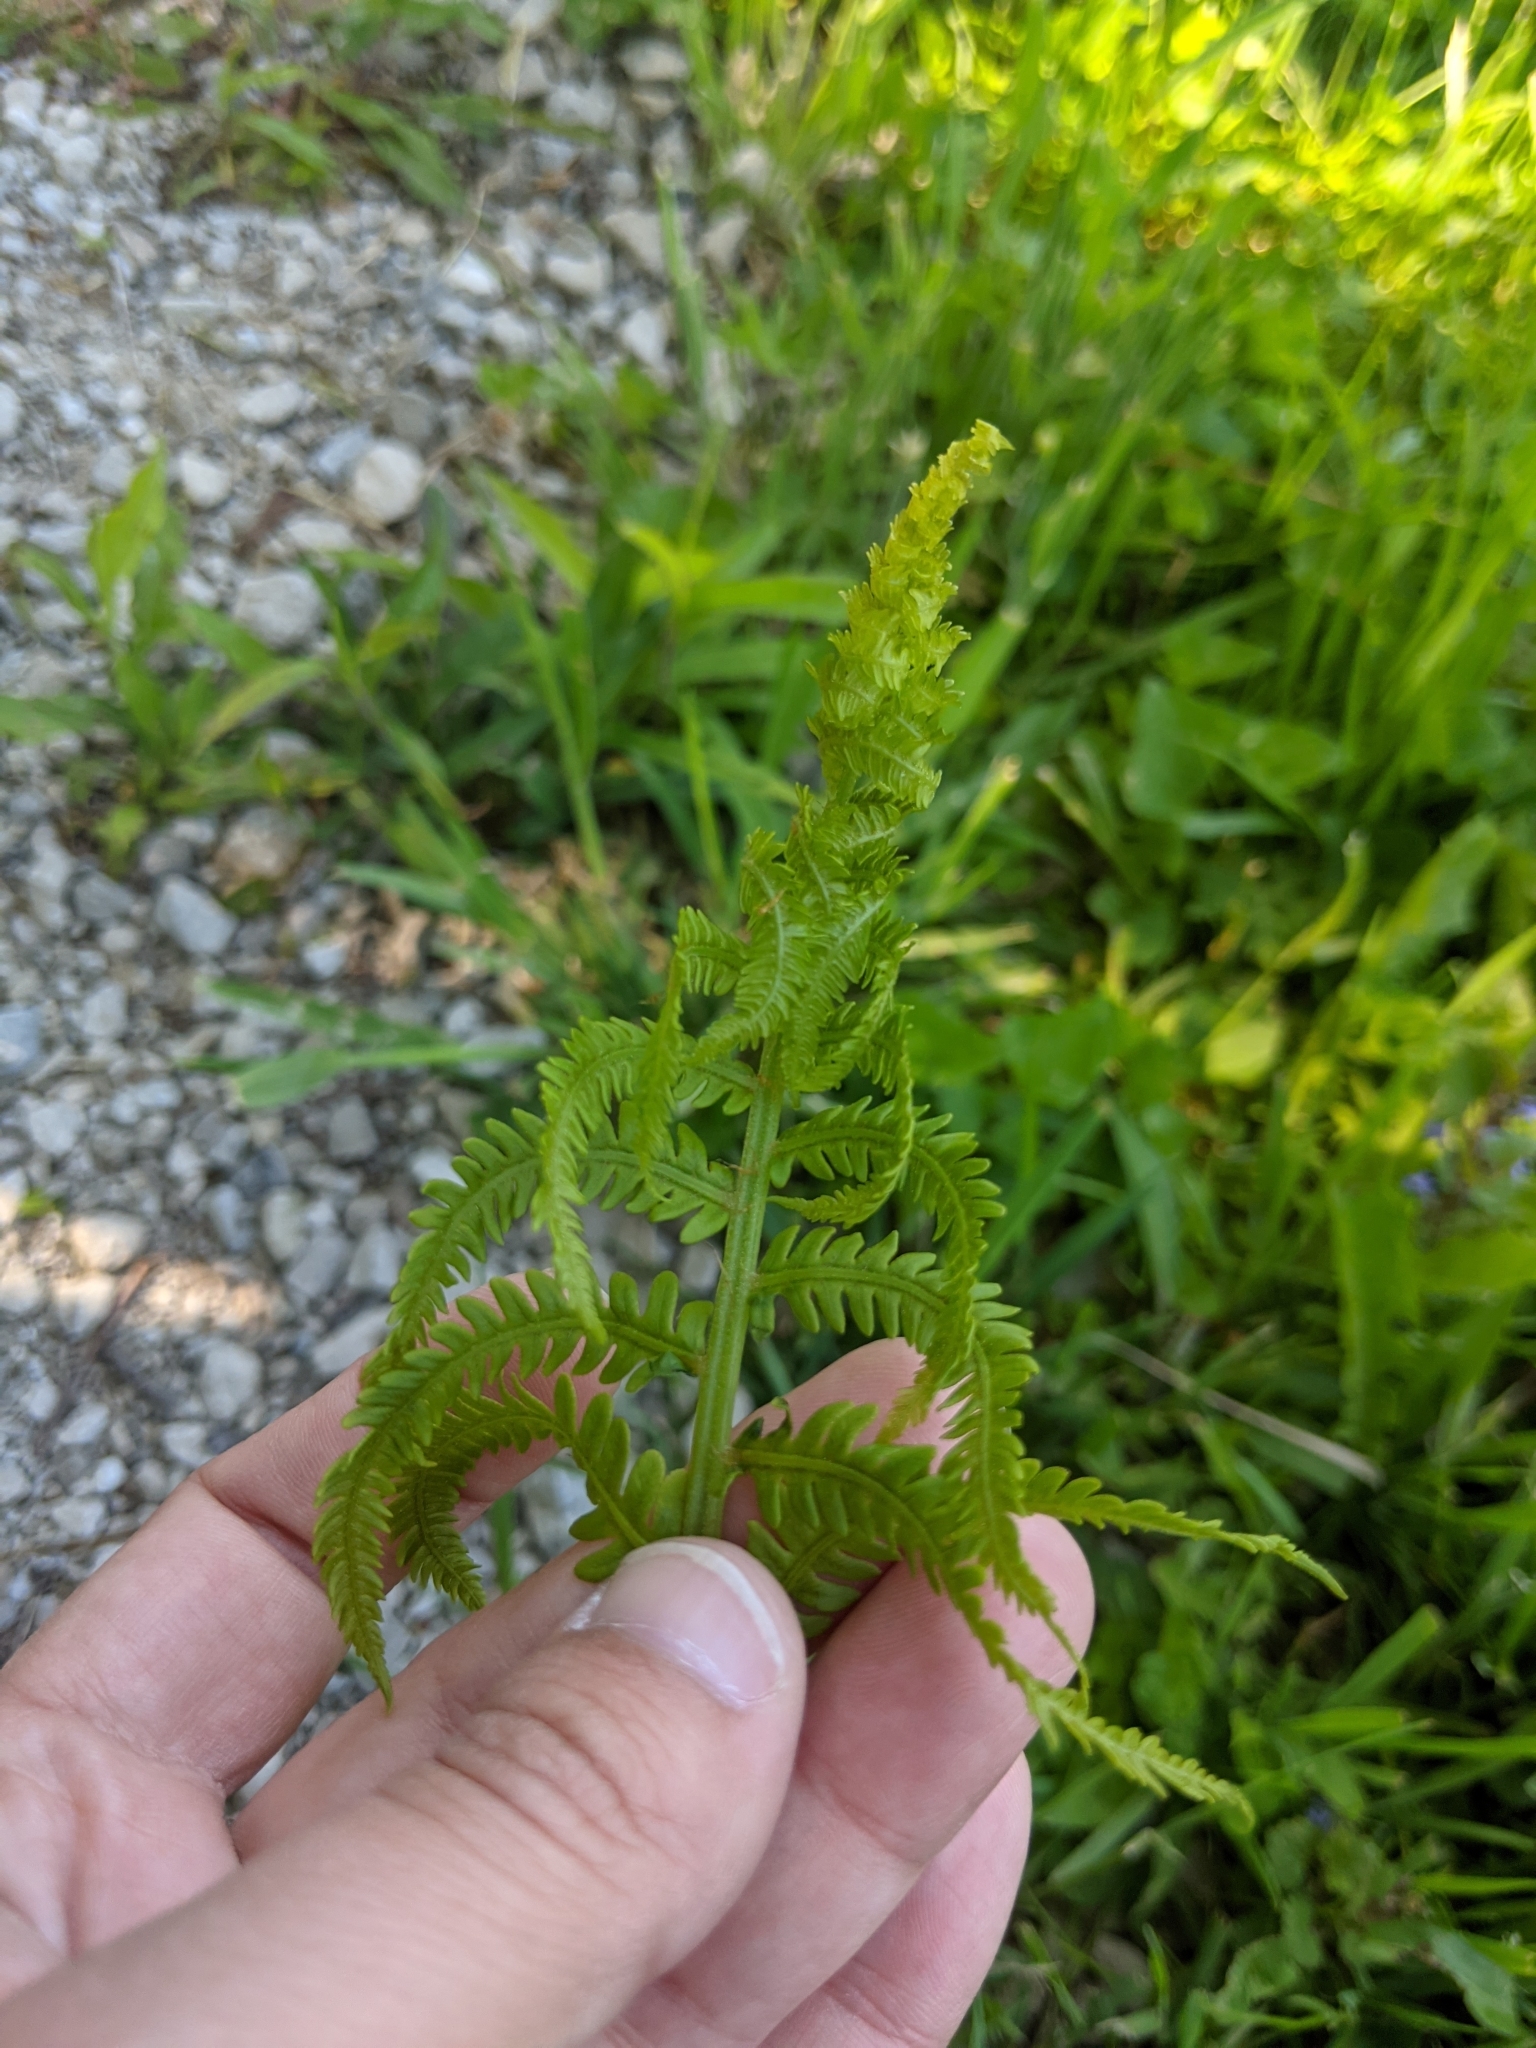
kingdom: Plantae
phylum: Tracheophyta
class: Polypodiopsida
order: Polypodiales
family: Onocleaceae
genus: Matteuccia
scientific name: Matteuccia struthiopteris
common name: Ostrich fern
